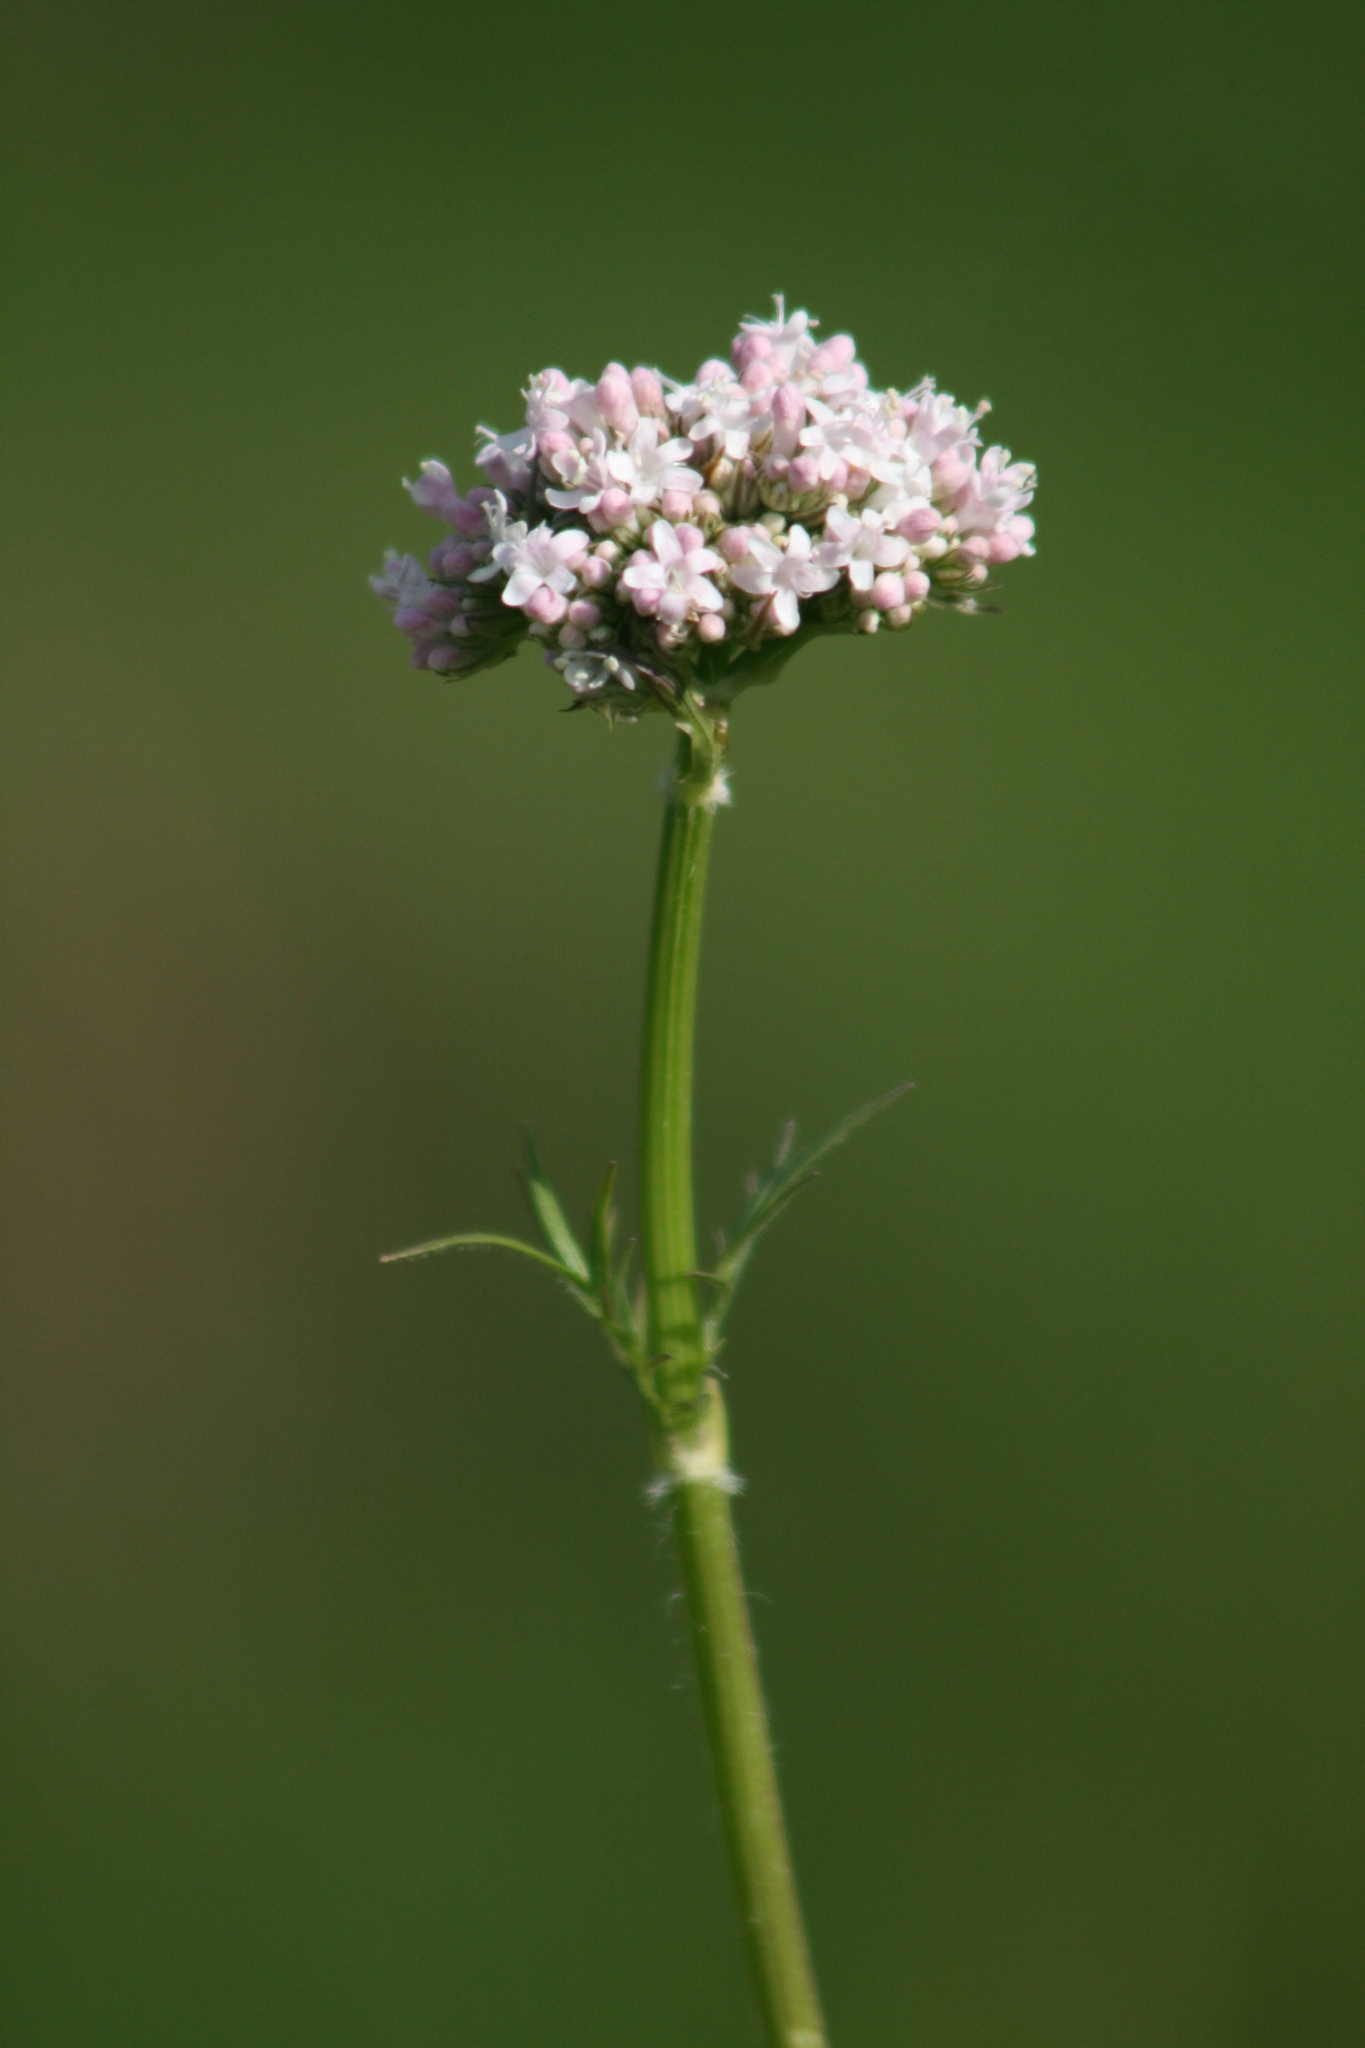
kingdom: Plantae
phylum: Tracheophyta
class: Magnoliopsida
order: Dipsacales
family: Caprifoliaceae
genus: Valeriana
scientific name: Valeriana officinalis
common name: Common valerian
